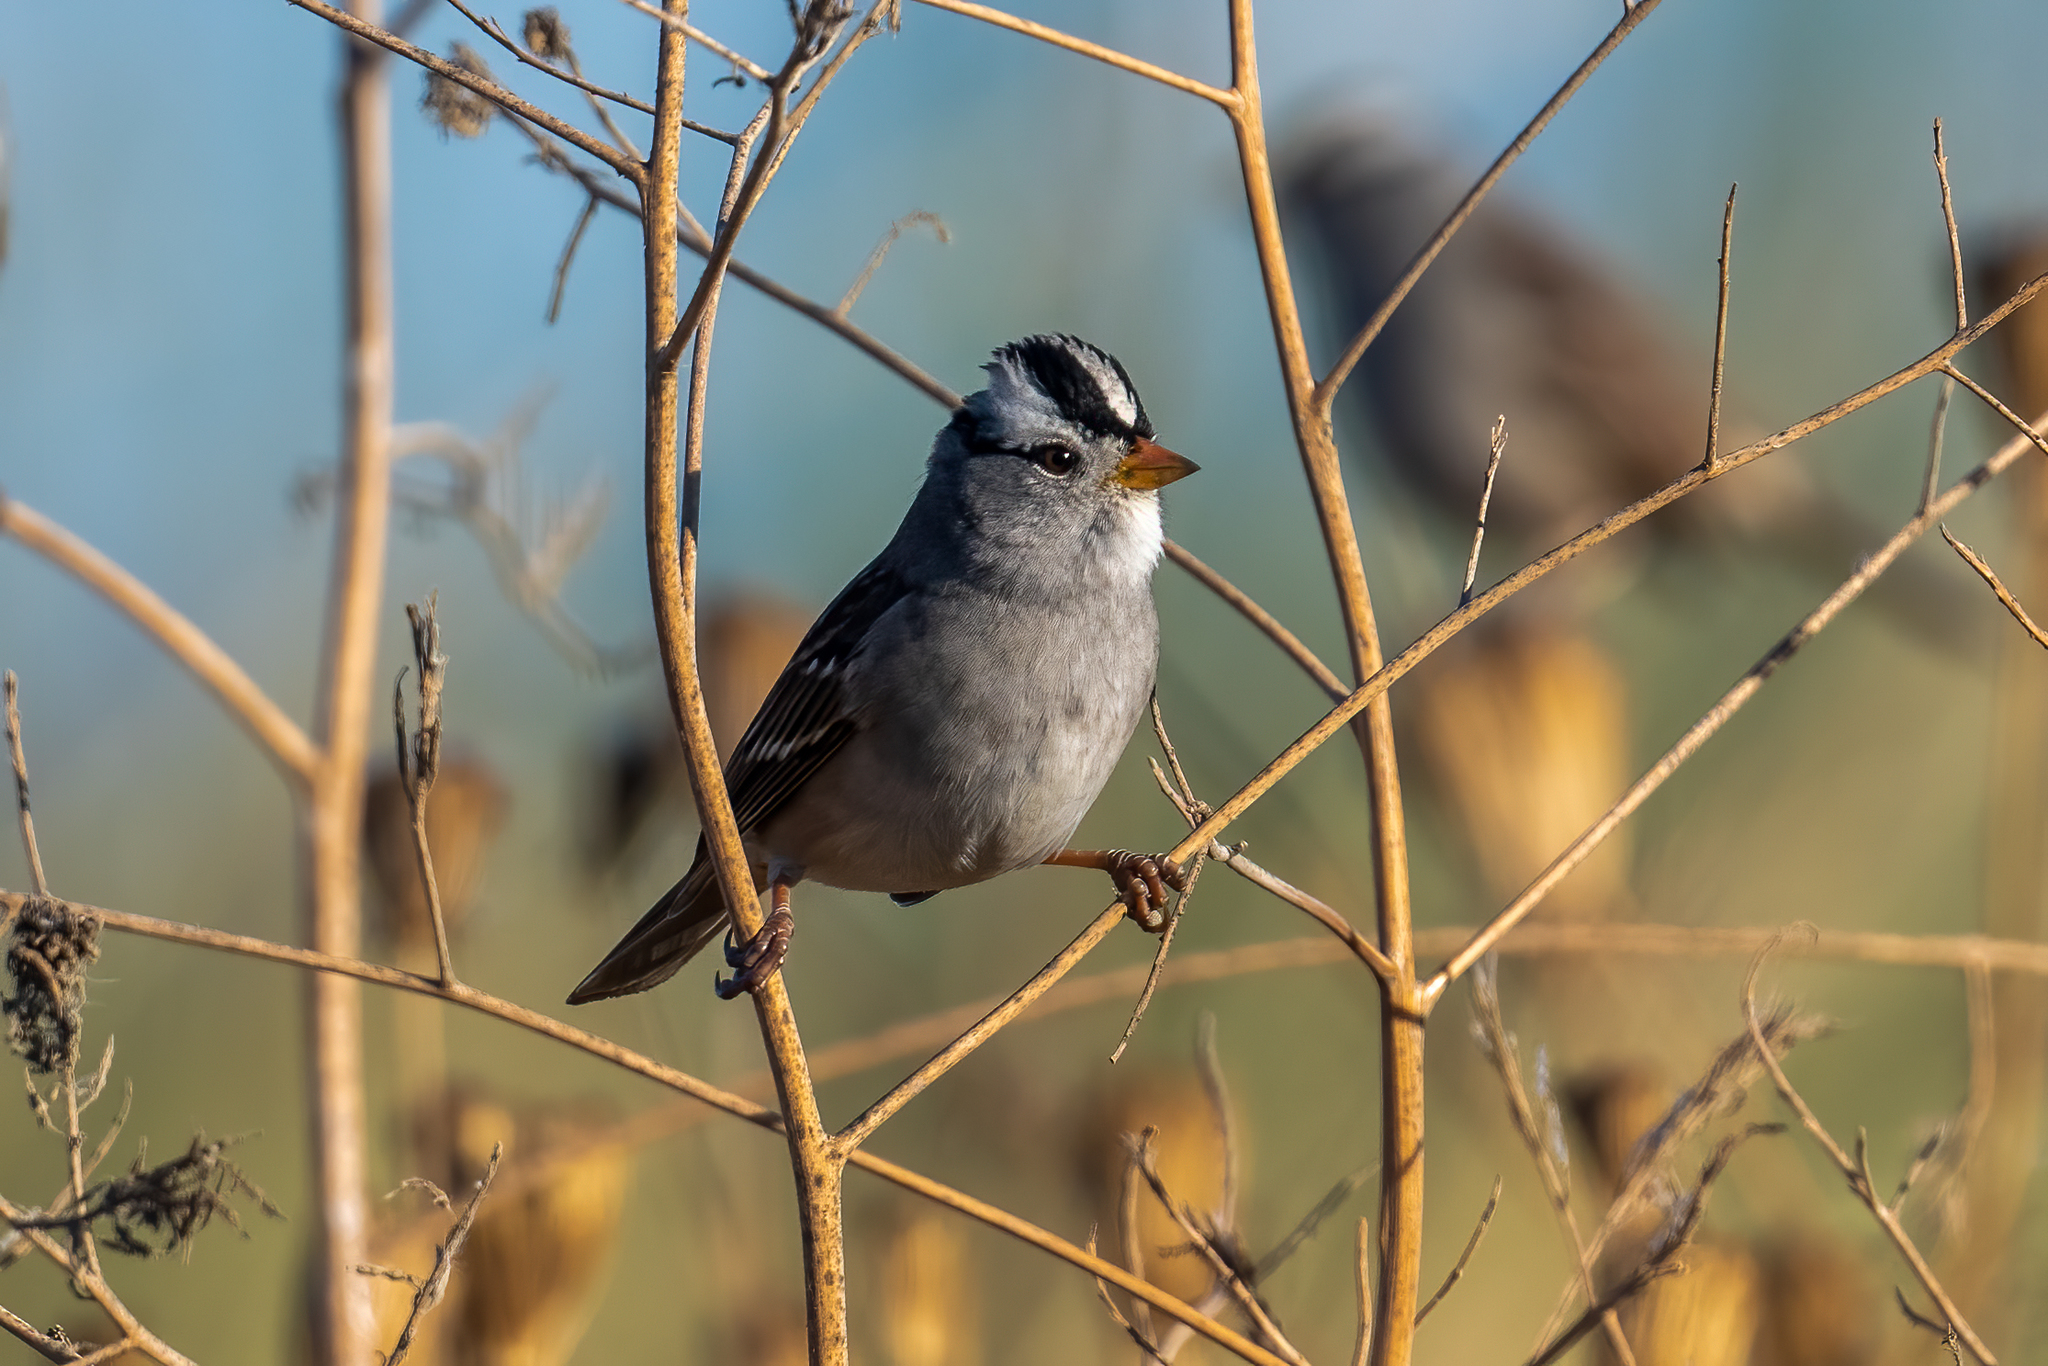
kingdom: Animalia
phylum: Chordata
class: Aves
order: Passeriformes
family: Passerellidae
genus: Zonotrichia
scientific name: Zonotrichia leucophrys
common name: White-crowned sparrow
